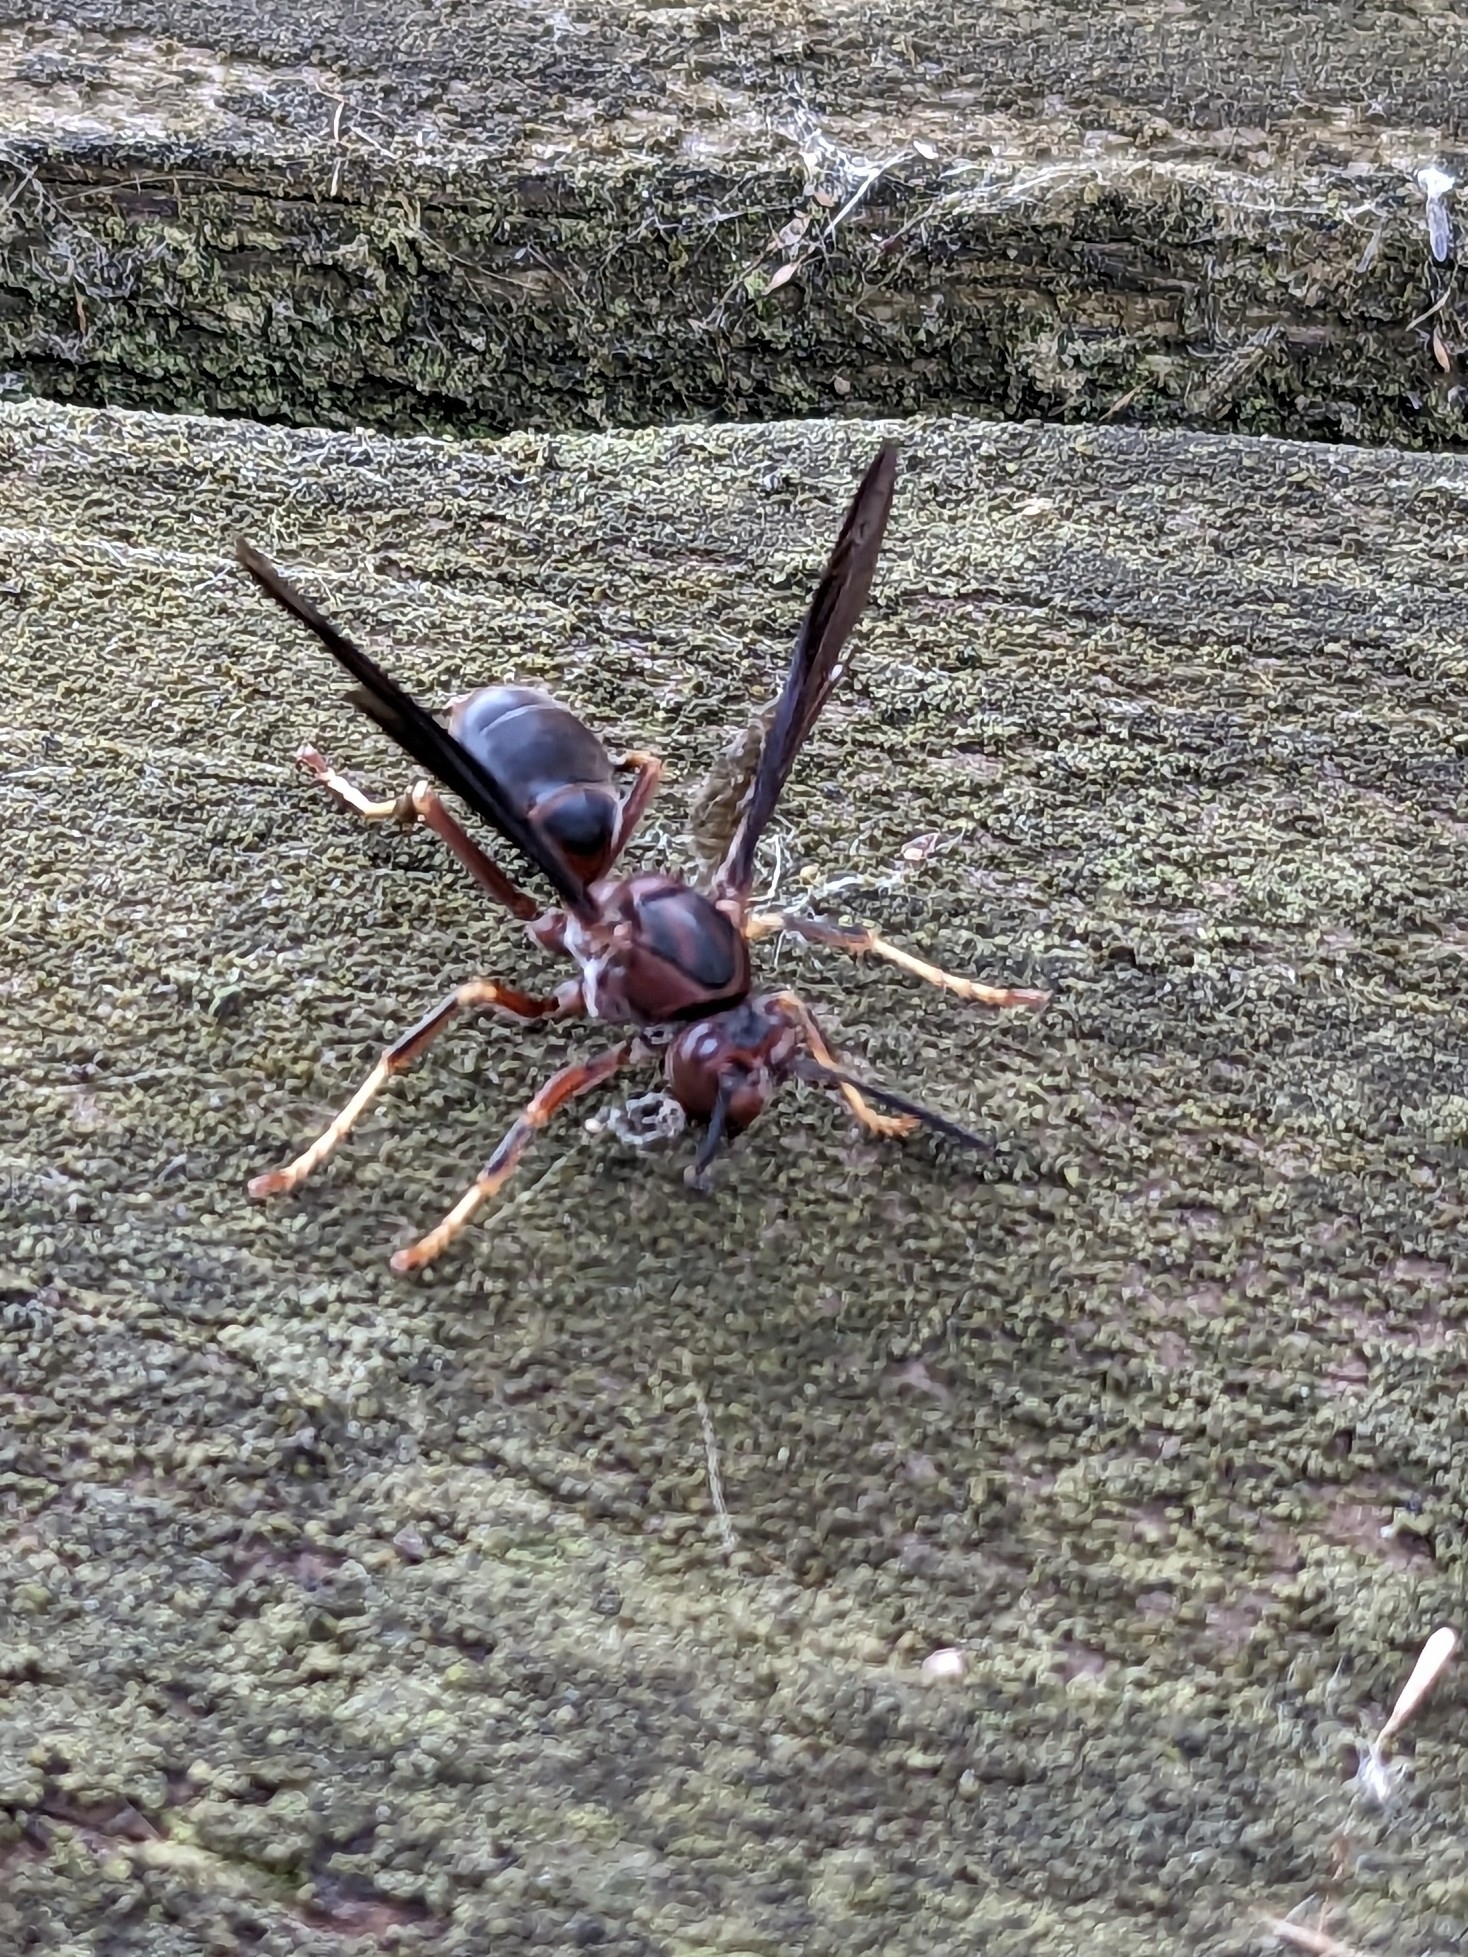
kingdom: Animalia
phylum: Arthropoda
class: Insecta
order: Hymenoptera
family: Eumenidae
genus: Polistes
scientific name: Polistes metricus
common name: Metric paper wasp
